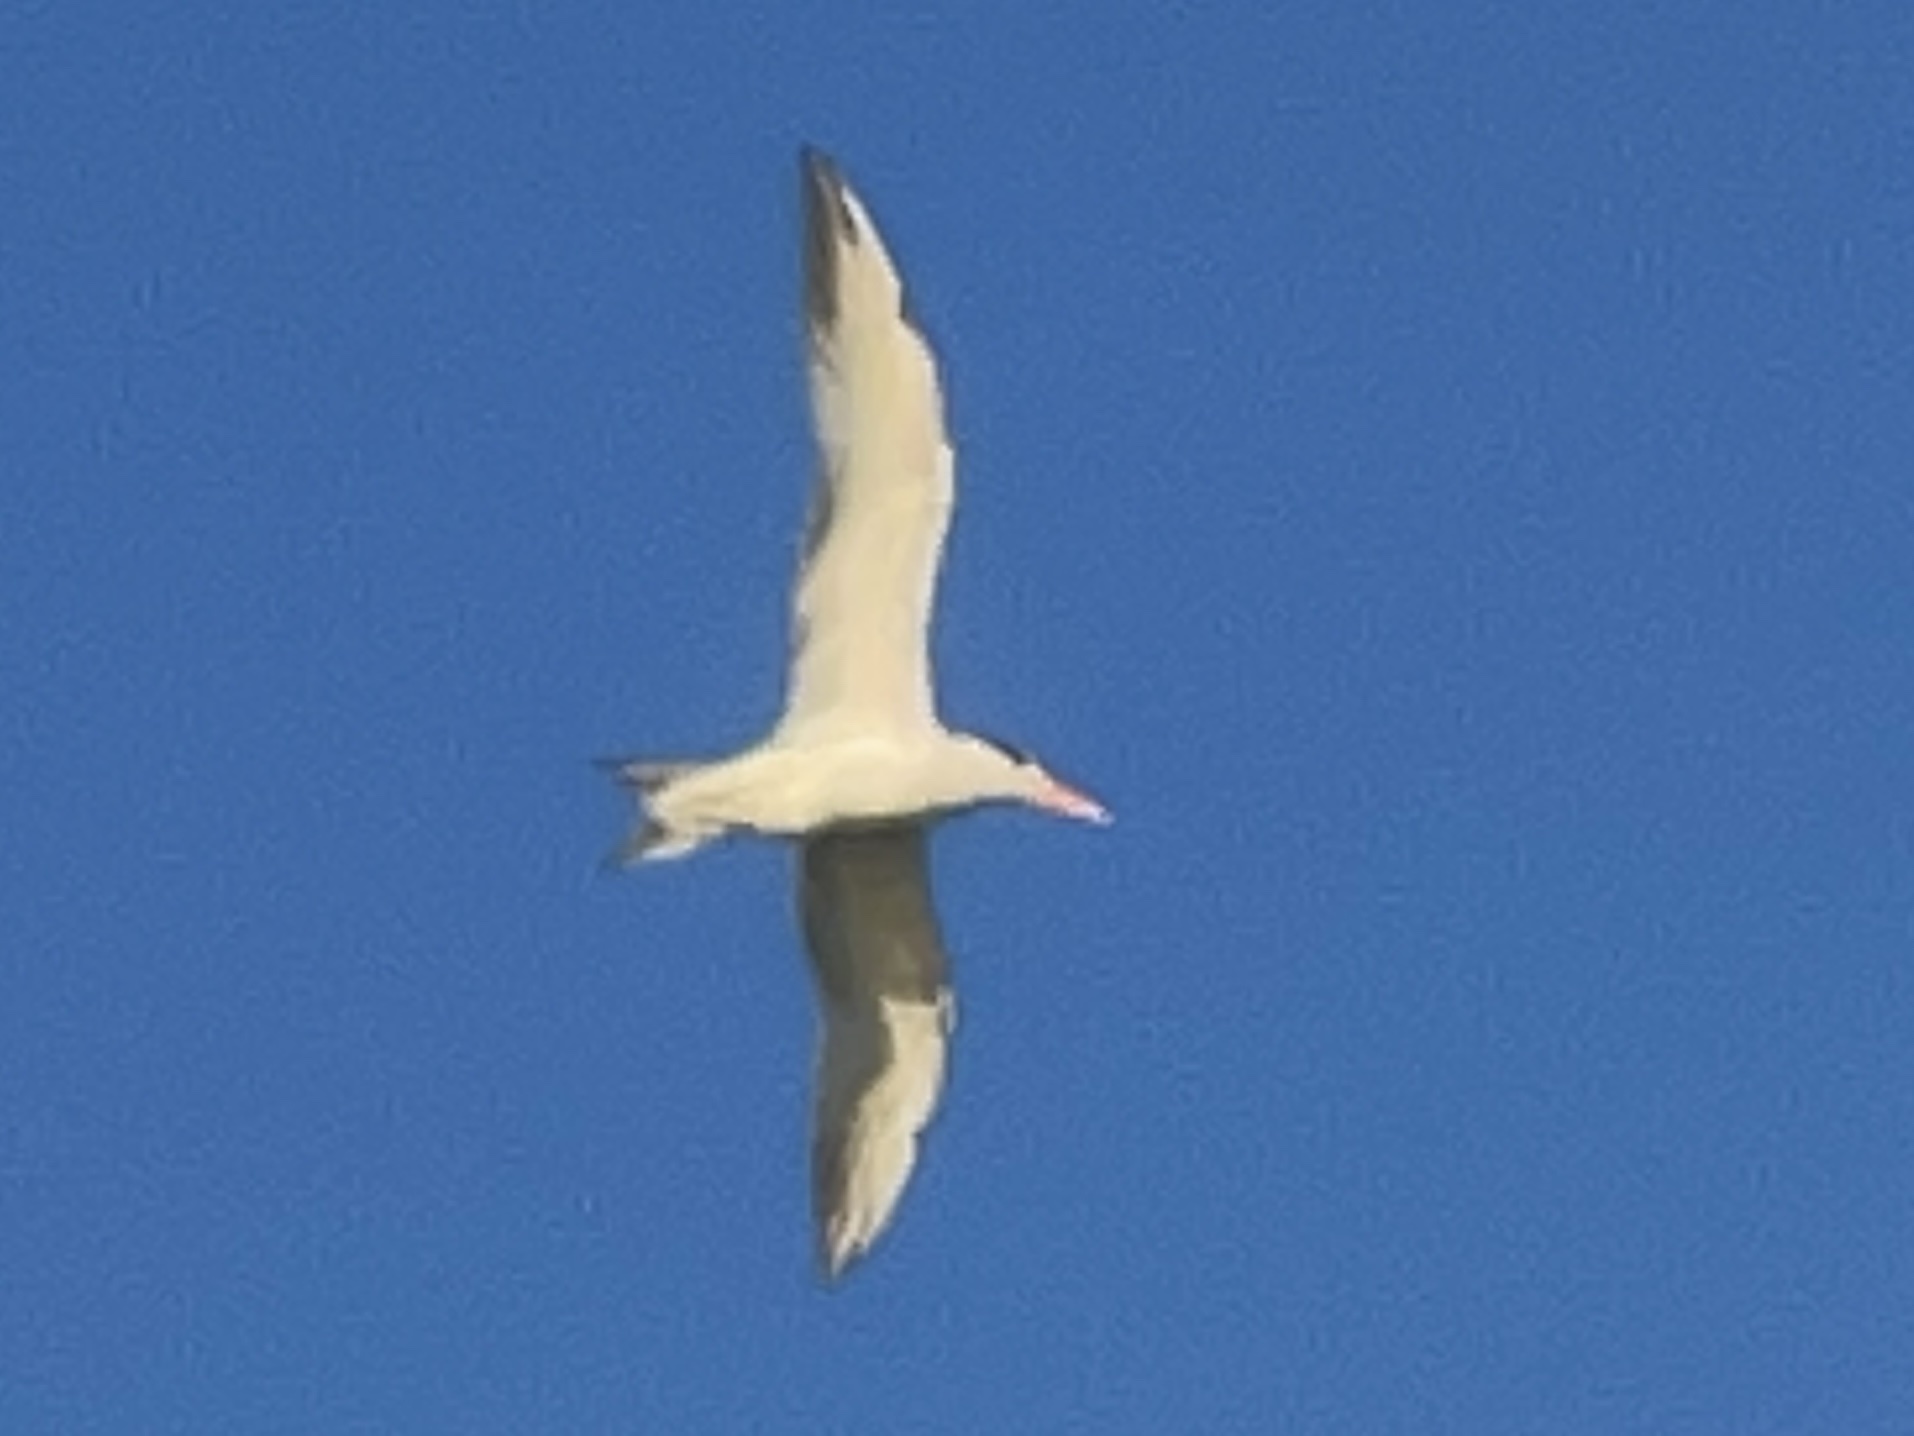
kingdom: Animalia
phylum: Chordata
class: Aves
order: Charadriiformes
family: Laridae
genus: Thalasseus
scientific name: Thalasseus maximus
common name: Royal tern
